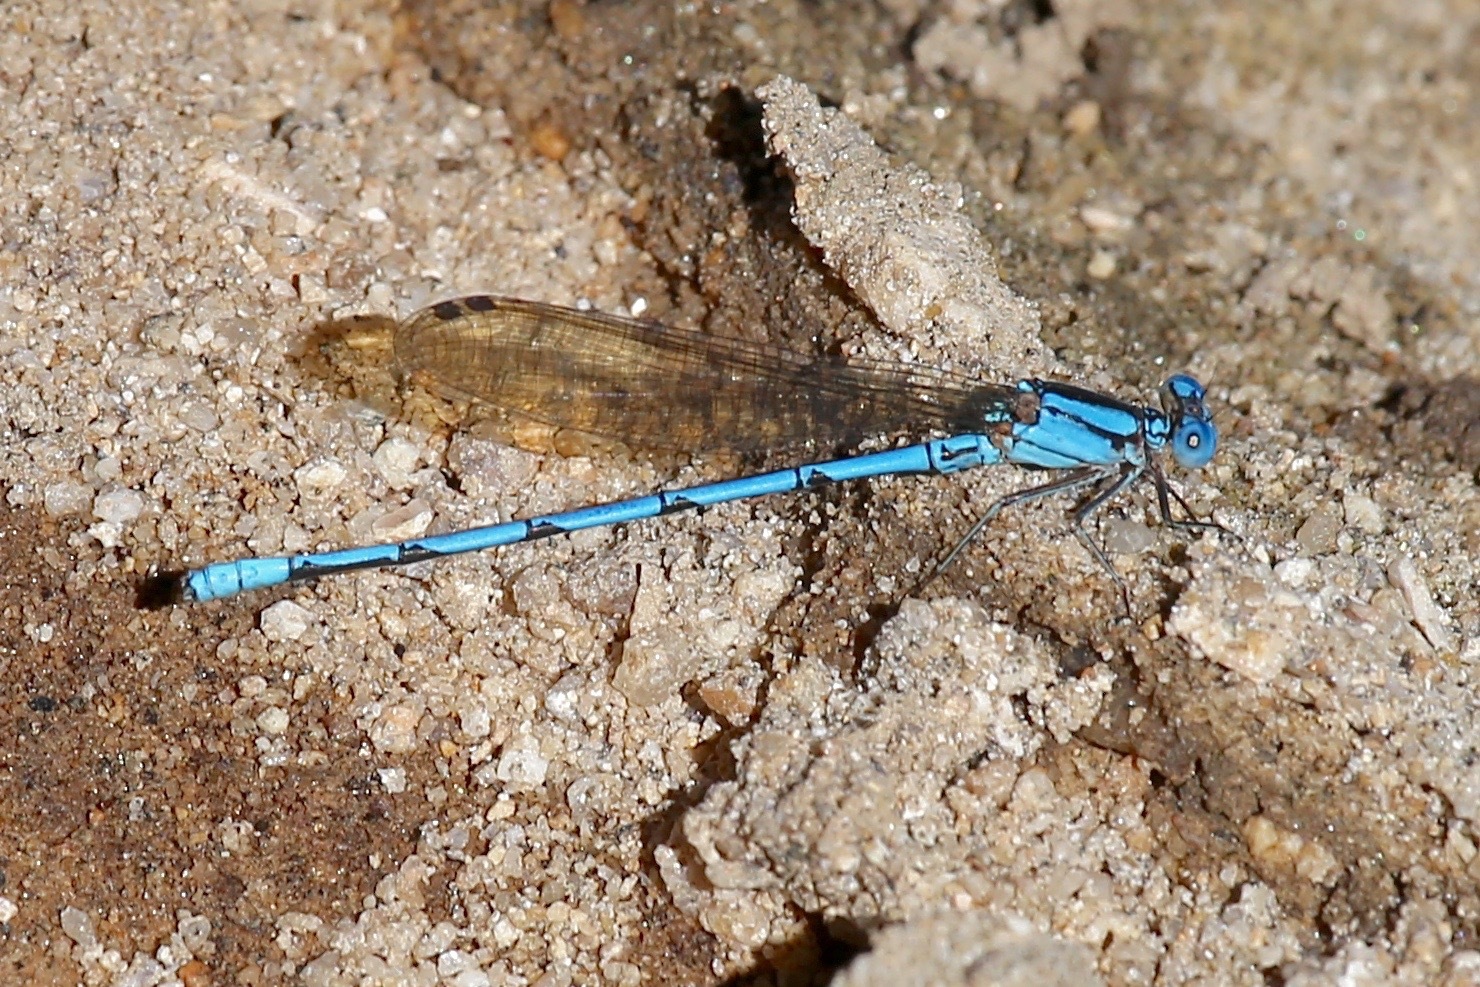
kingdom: Animalia
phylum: Arthropoda
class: Insecta
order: Odonata
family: Coenagrionidae
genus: Argia
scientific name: Argia anceps
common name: Cerulean dancer
